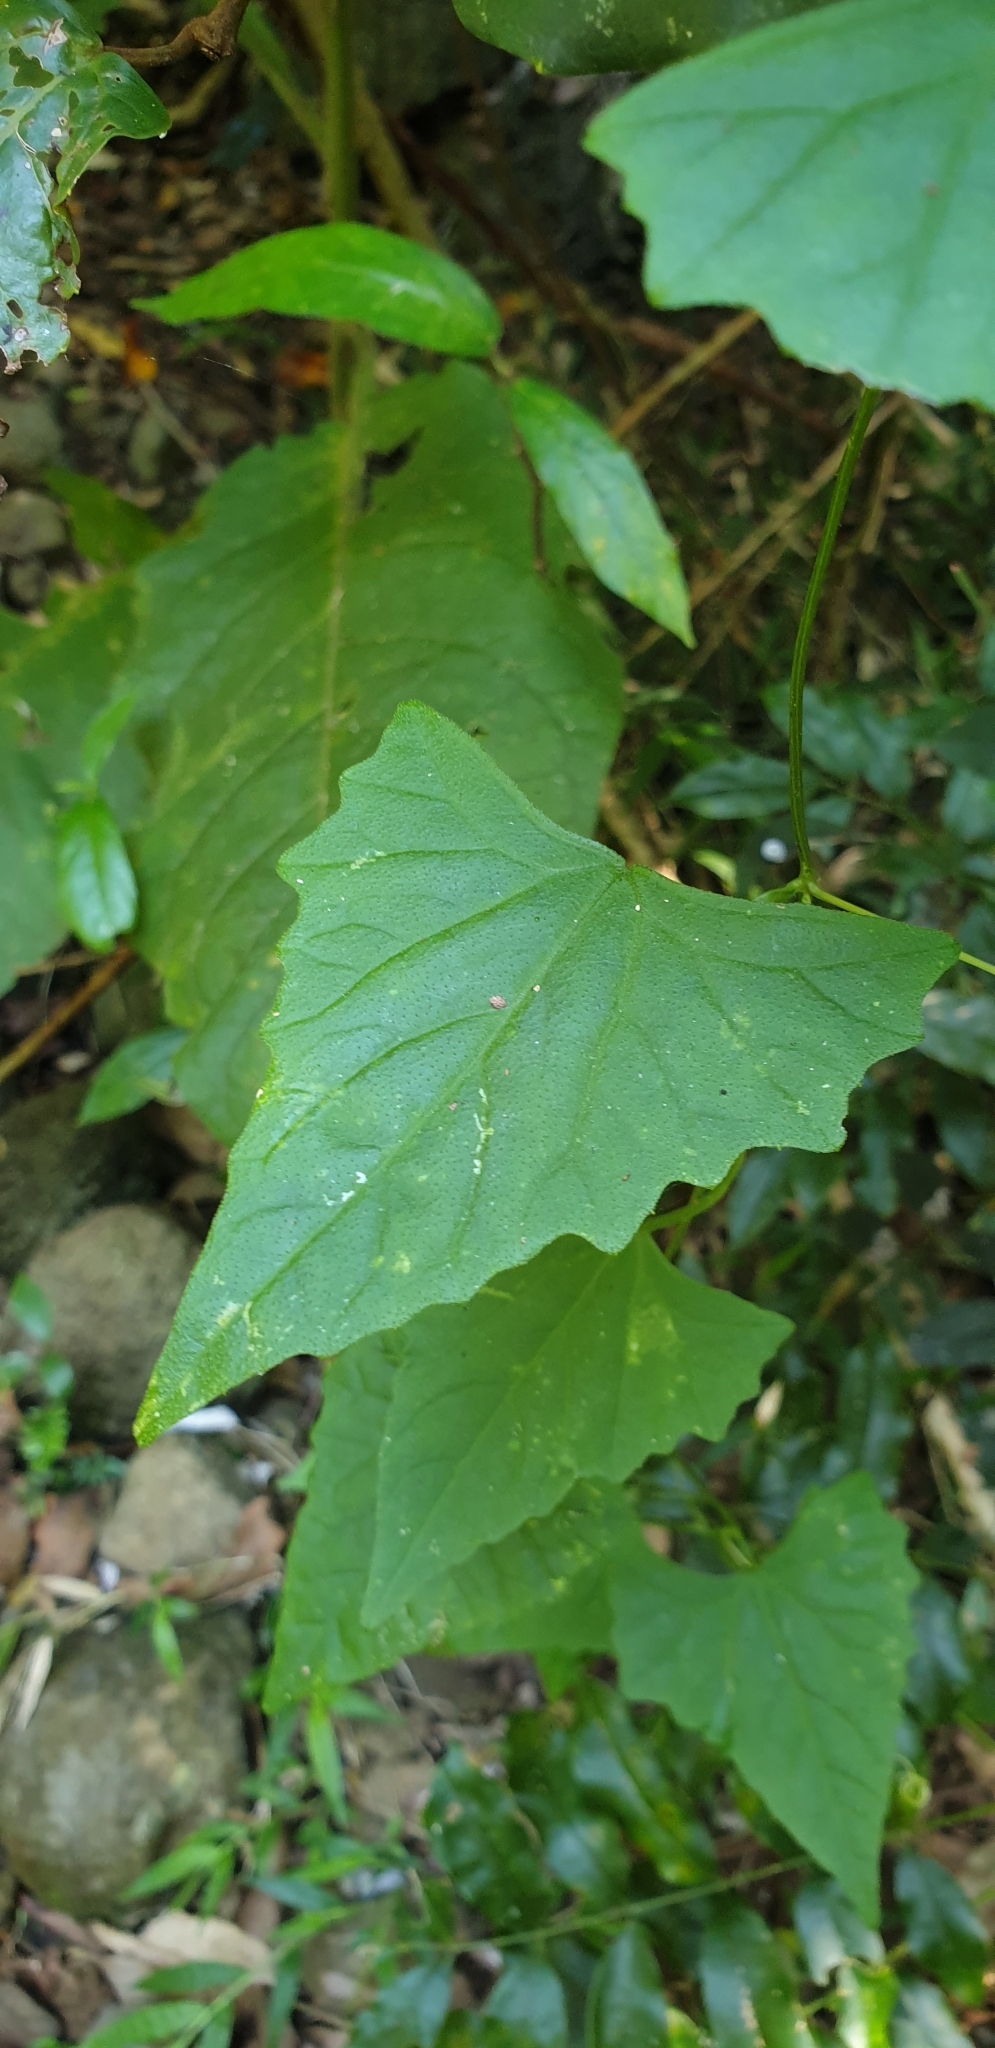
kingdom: Plantae
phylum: Tracheophyta
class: Magnoliopsida
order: Cucurbitales
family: Cucurbitaceae
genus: Zehneria
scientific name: Zehneria cunninghamii
